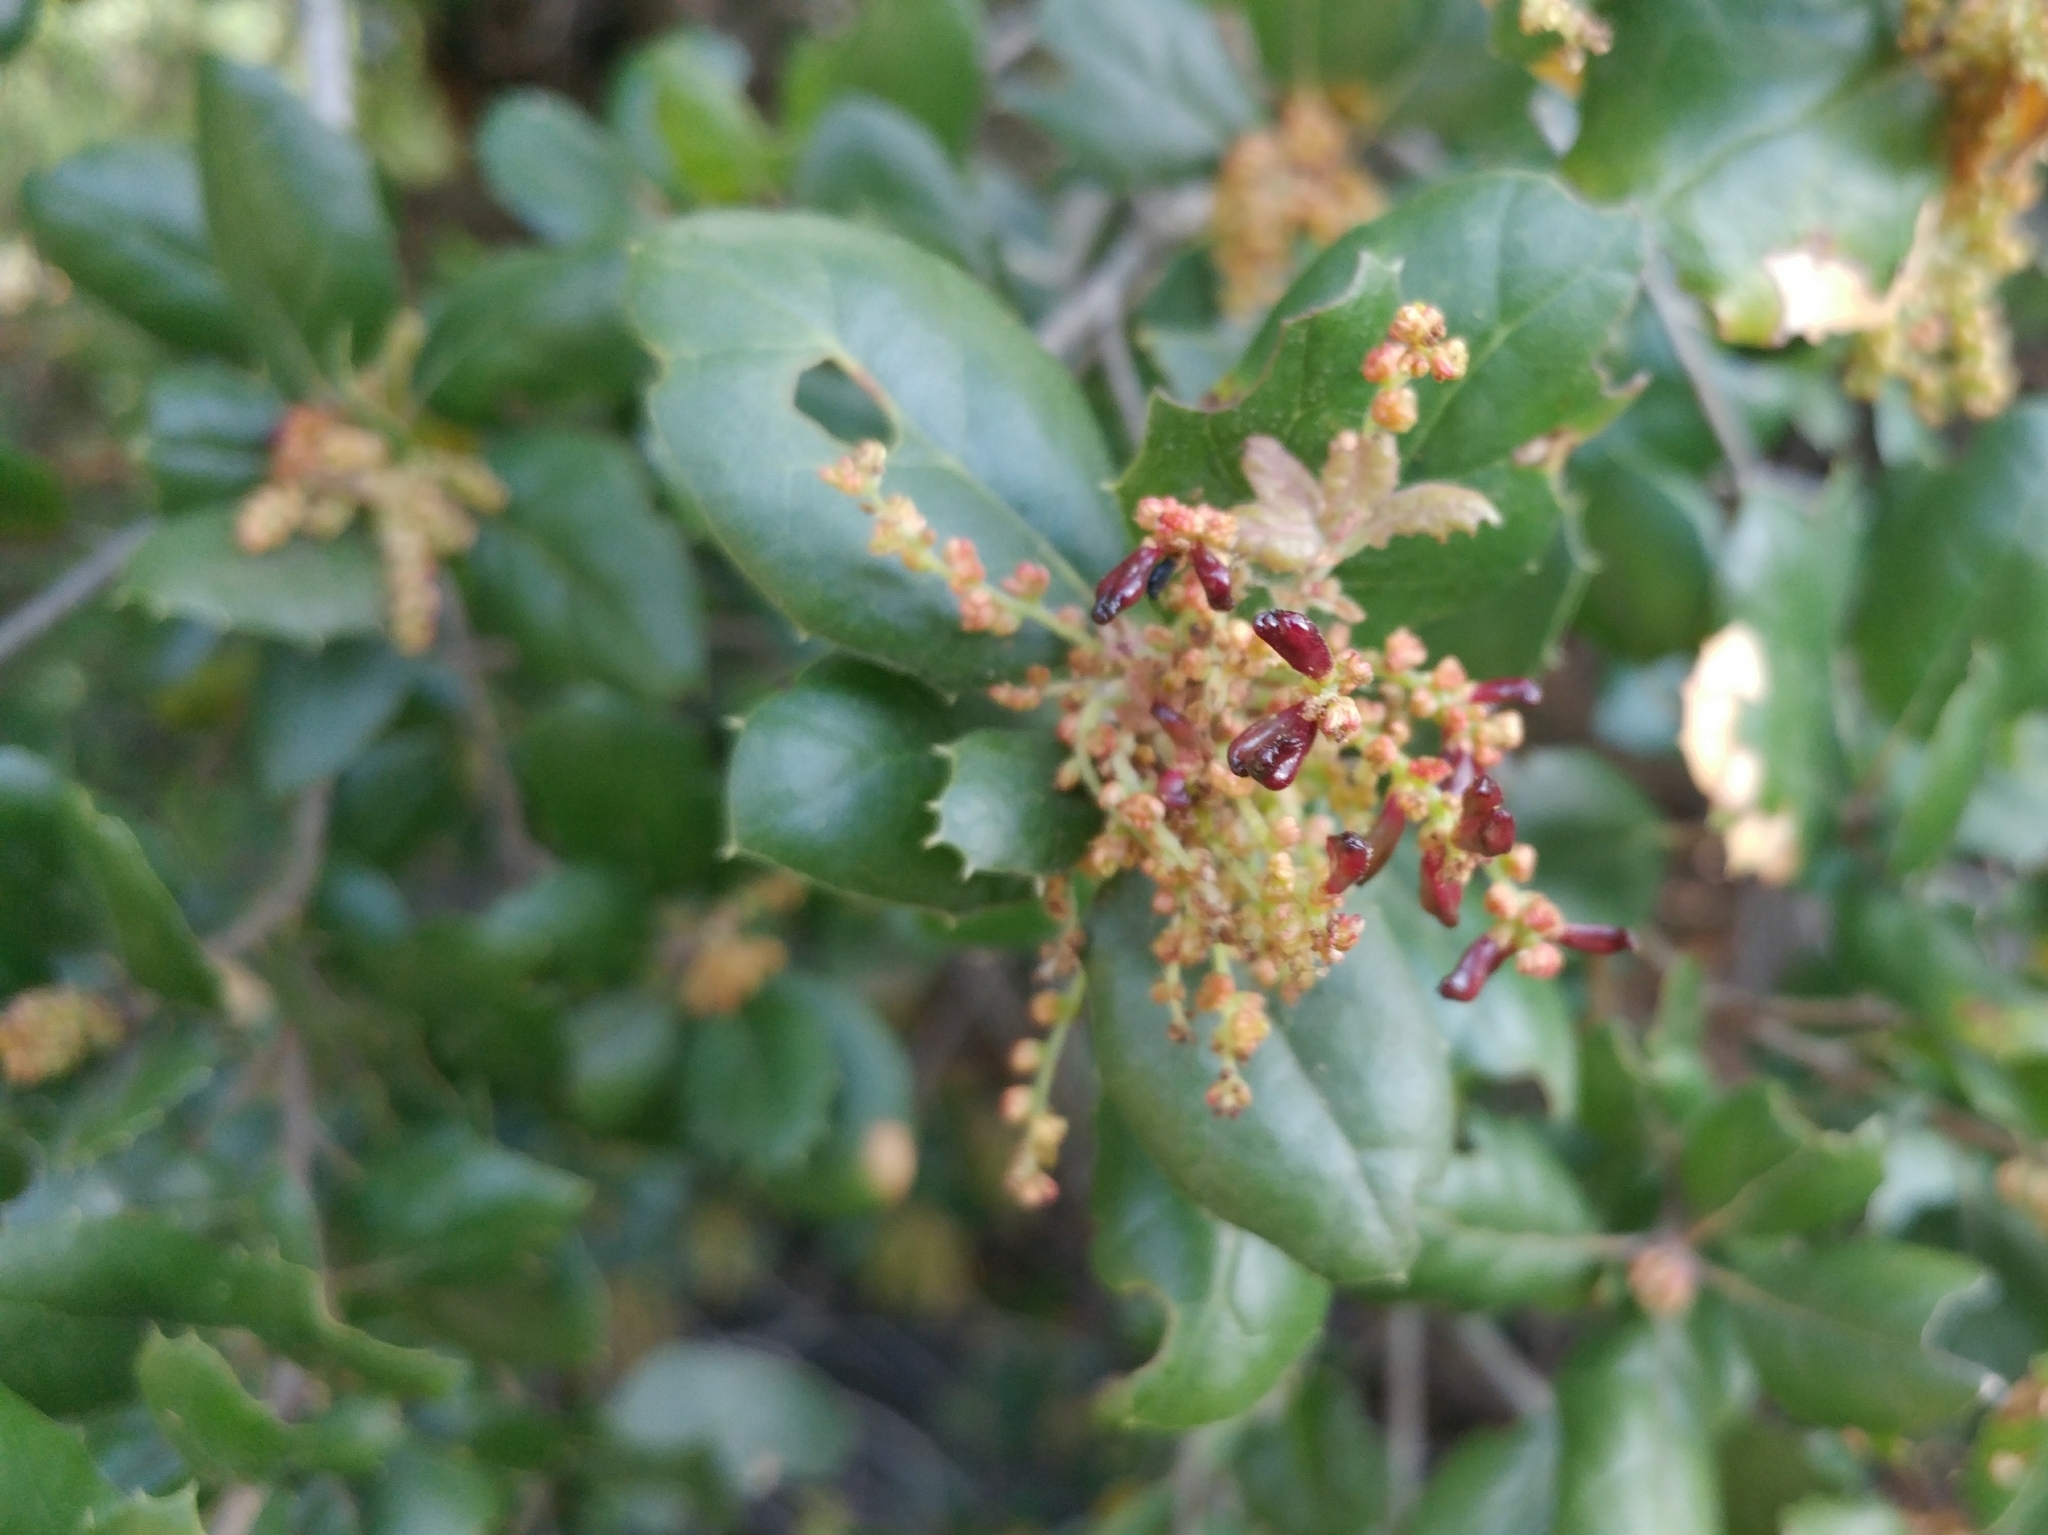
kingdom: Plantae
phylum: Tracheophyta
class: Magnoliopsida
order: Fagales
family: Fagaceae
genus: Quercus
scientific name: Quercus agrifolia
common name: California live oak
